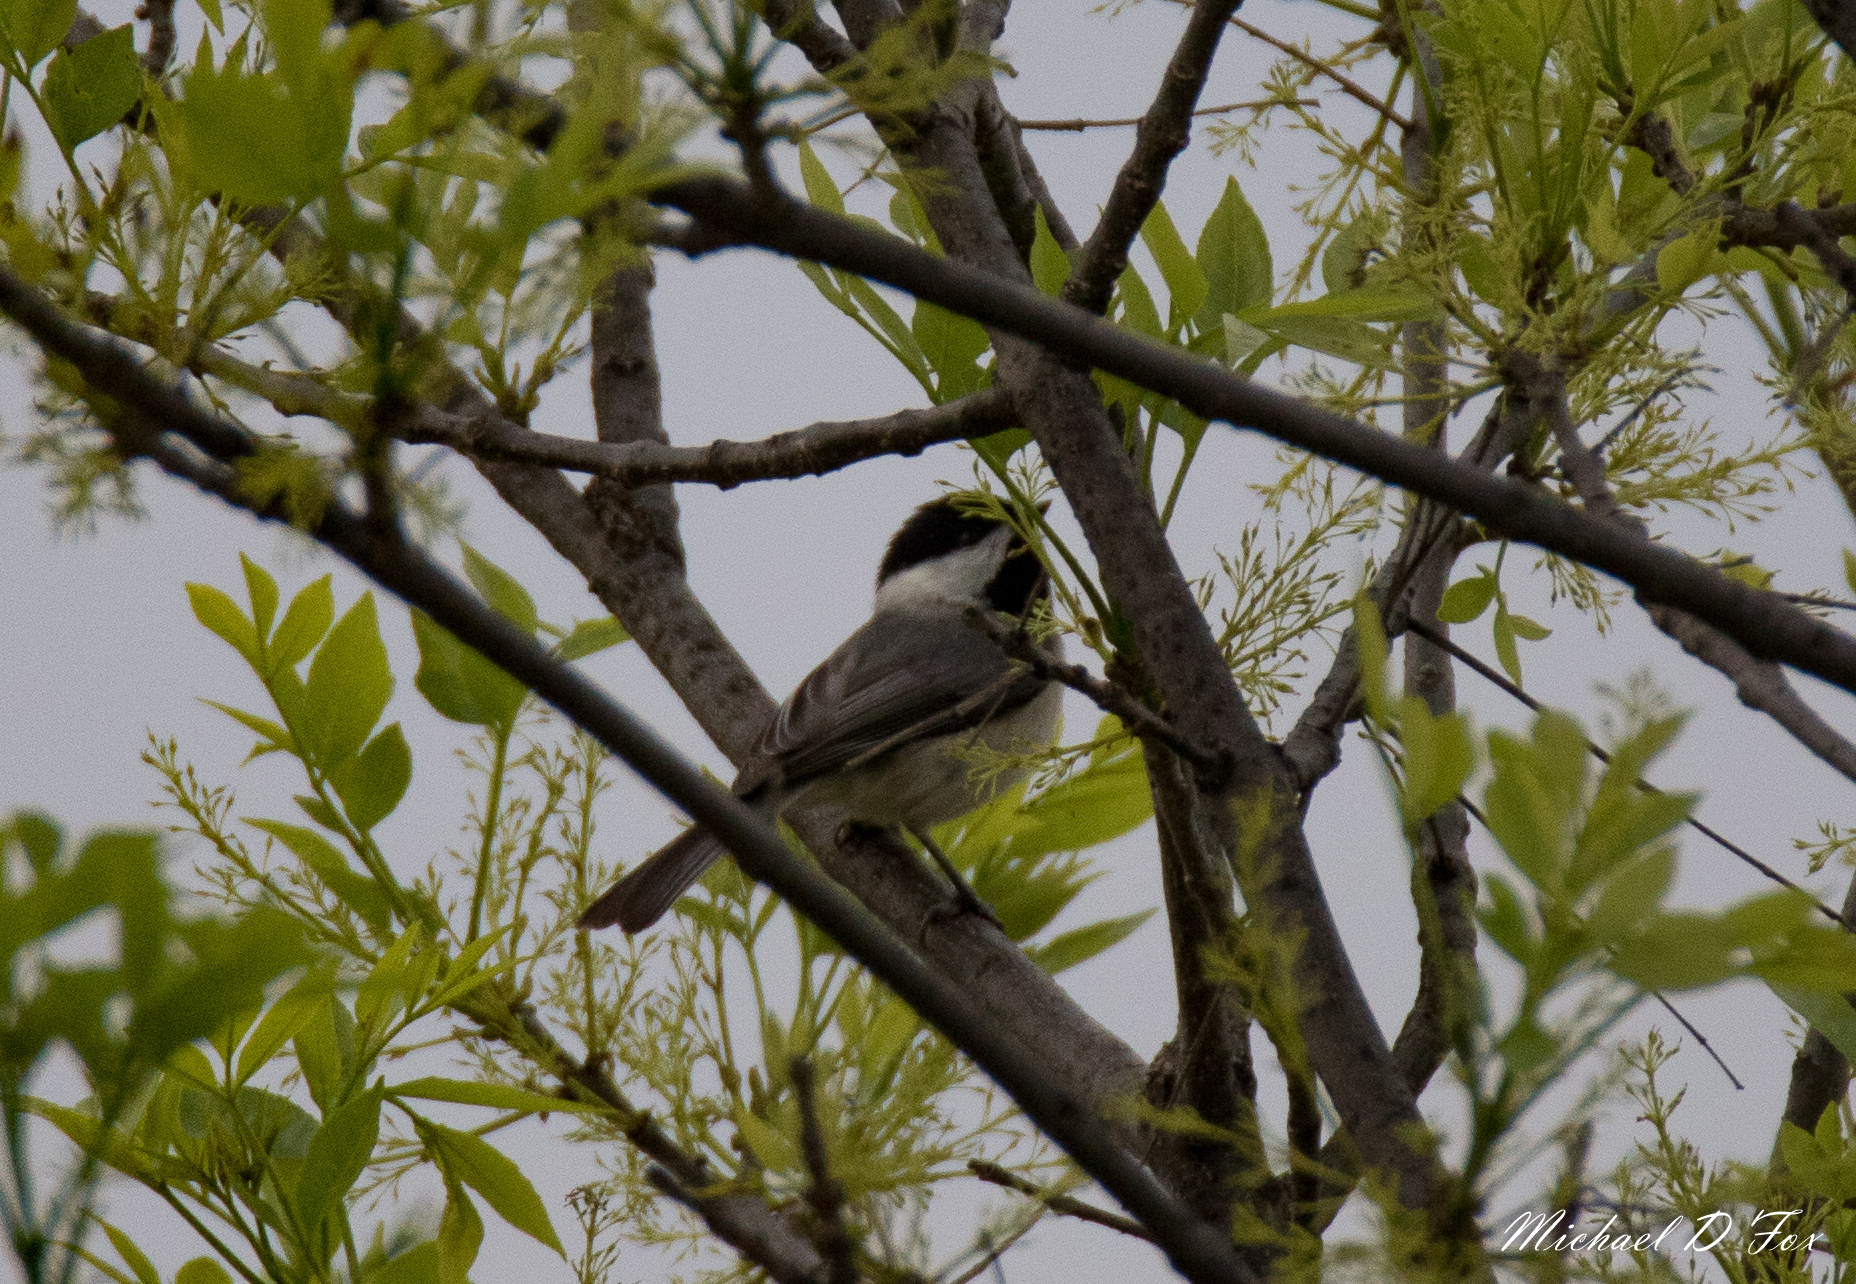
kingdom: Animalia
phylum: Chordata
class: Aves
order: Passeriformes
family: Paridae
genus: Poecile
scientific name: Poecile carolinensis
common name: Carolina chickadee
